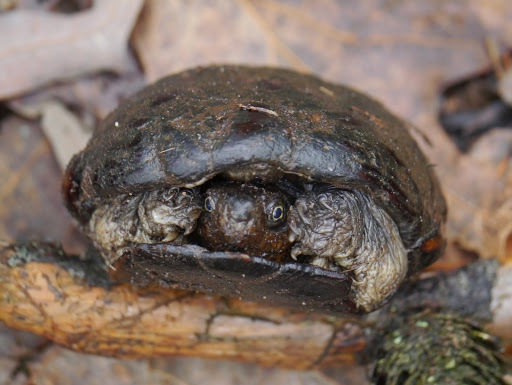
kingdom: Animalia
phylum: Chordata
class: Testudines
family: Kinosternidae
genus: Kinosternon
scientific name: Kinosternon subrubrum
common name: Eastern mud turtle
